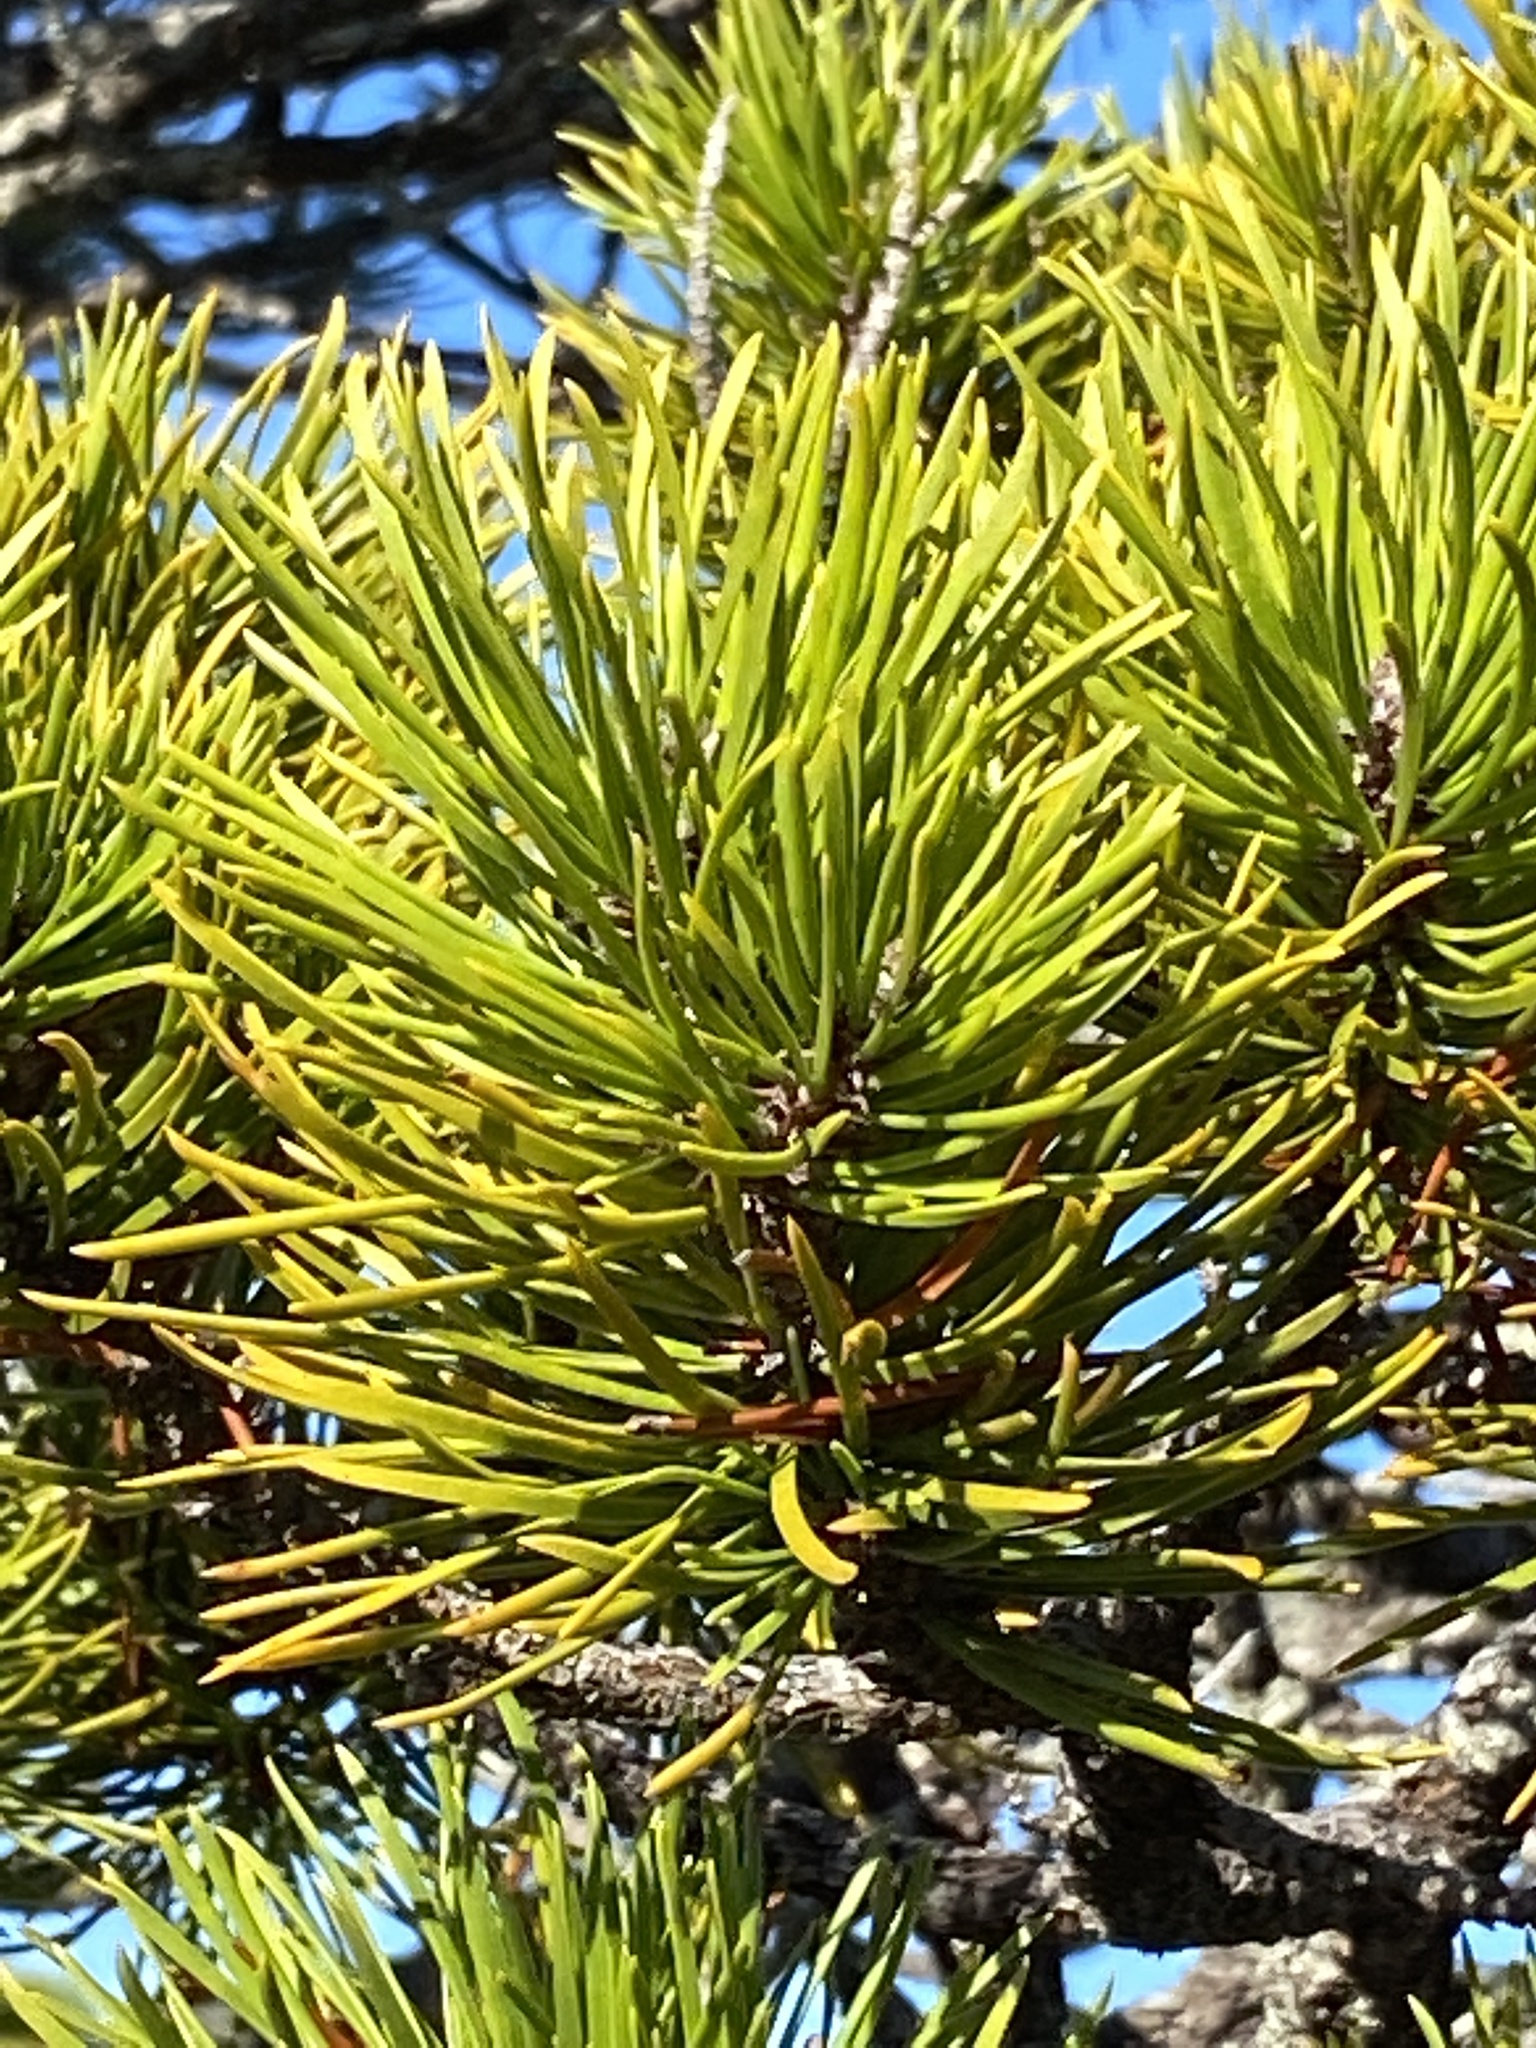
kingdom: Plantae
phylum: Tracheophyta
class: Pinopsida
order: Pinales
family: Pinaceae
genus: Pinus
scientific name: Pinus contorta
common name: Lodgepole pine
